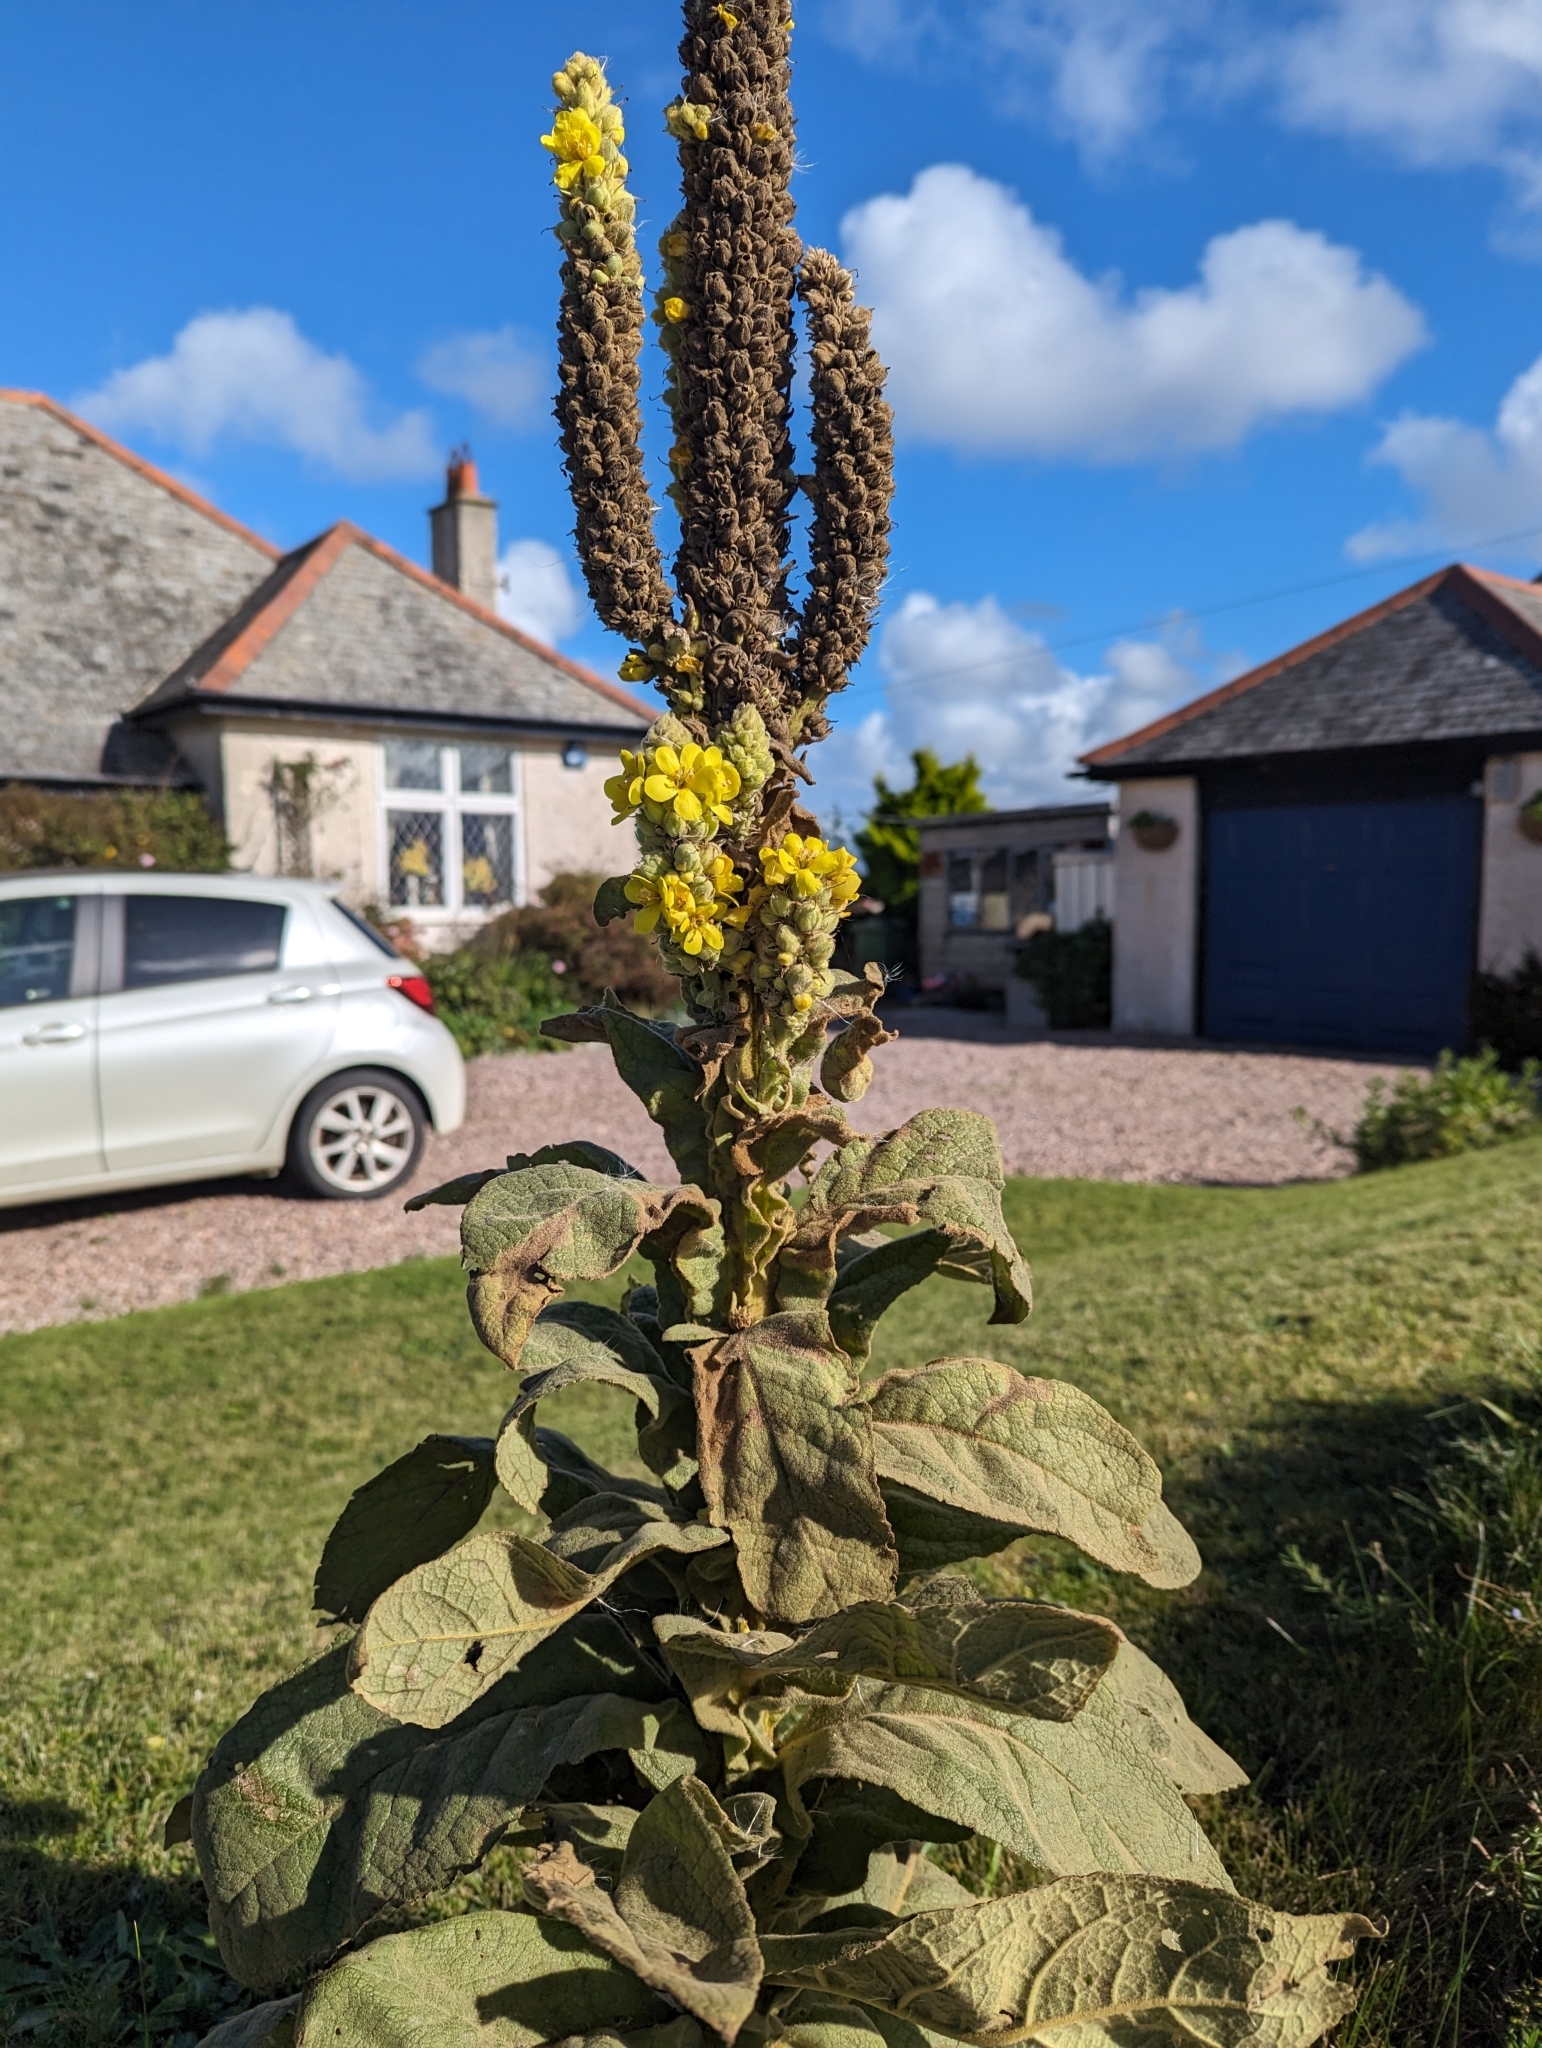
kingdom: Plantae
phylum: Tracheophyta
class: Magnoliopsida
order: Lamiales
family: Scrophulariaceae
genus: Verbascum
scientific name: Verbascum thapsus
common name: Common mullein
